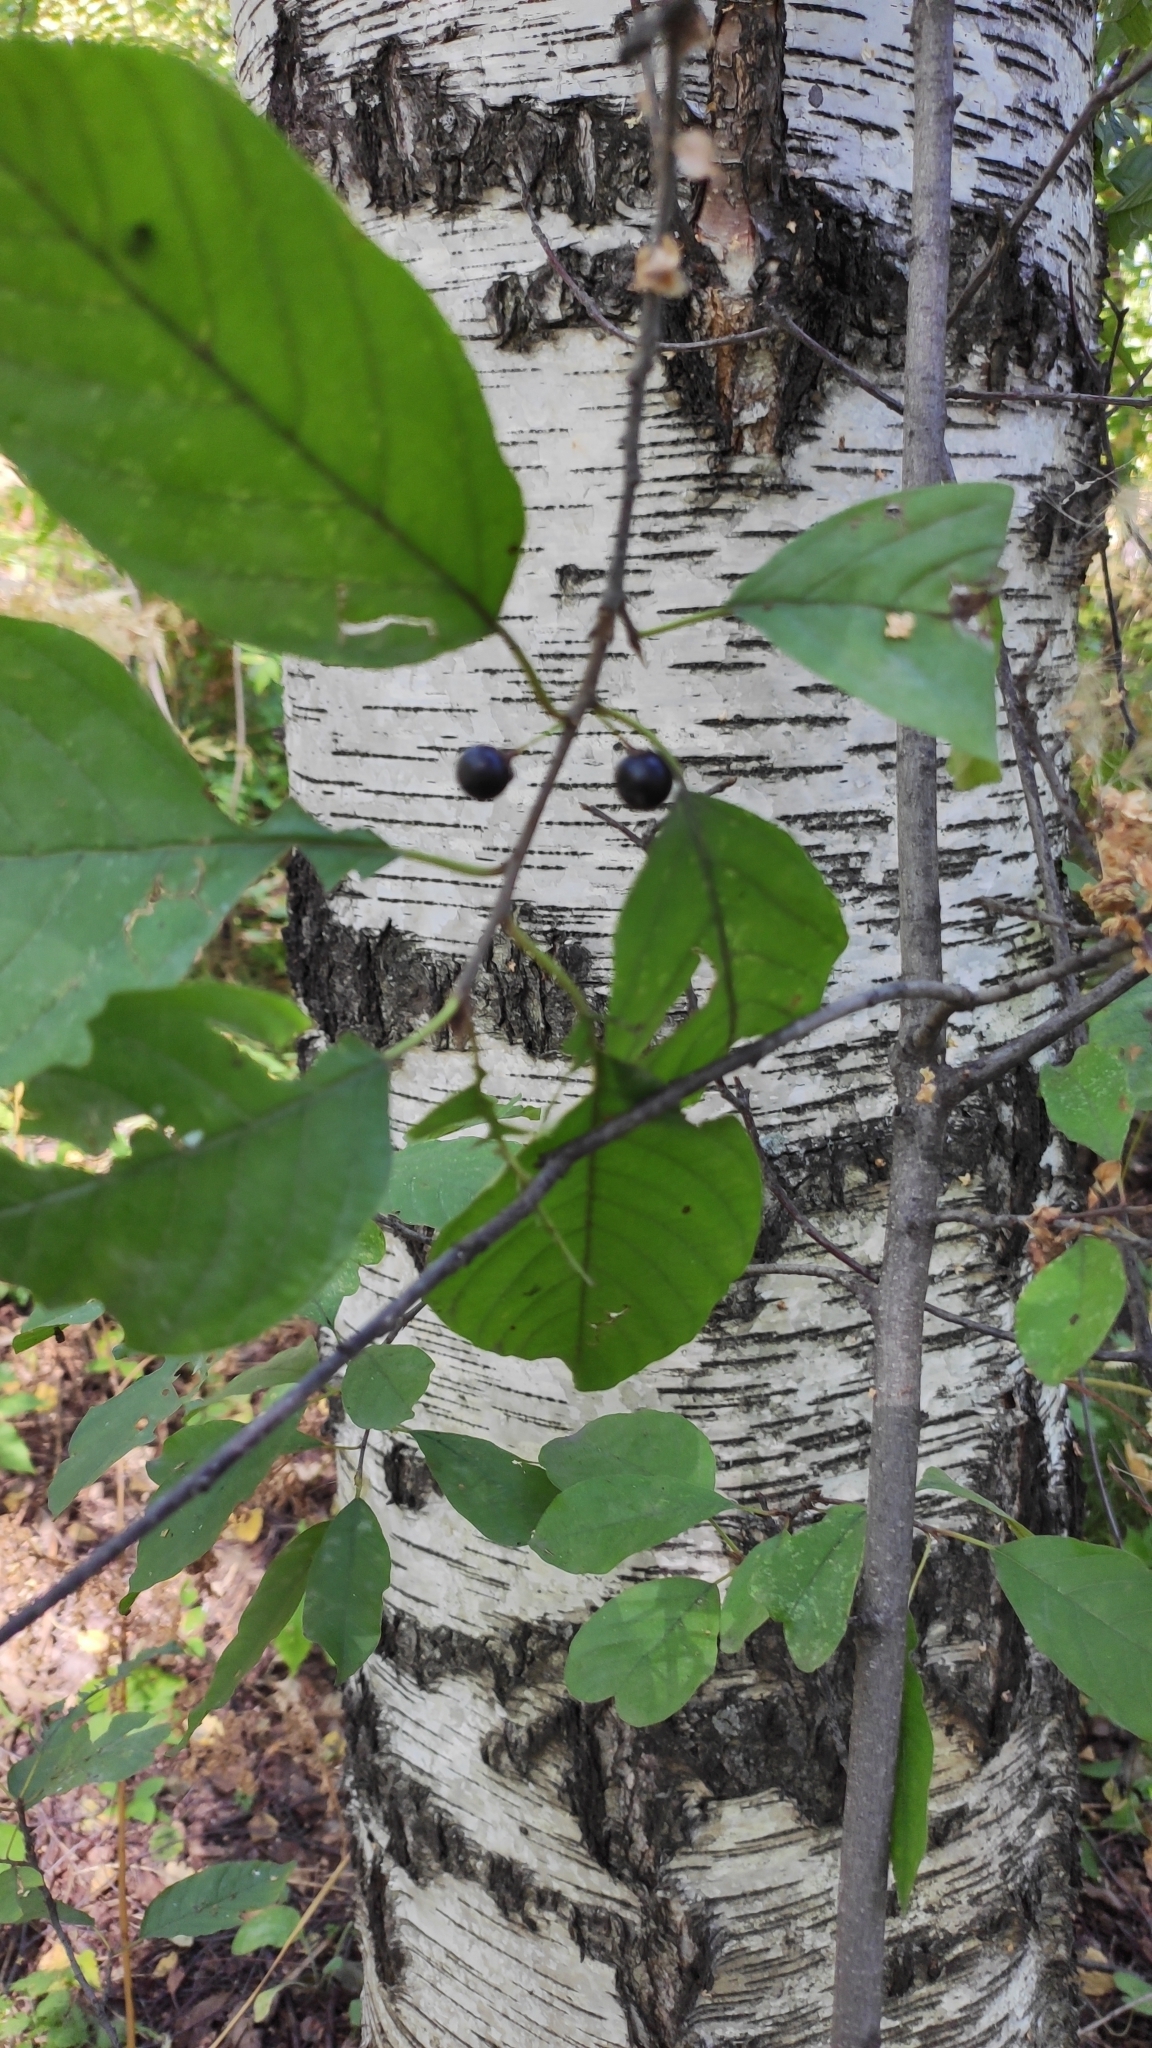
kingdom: Plantae
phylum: Tracheophyta
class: Magnoliopsida
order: Rosales
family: Rhamnaceae
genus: Frangula
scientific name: Frangula alnus
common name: Alder buckthorn
